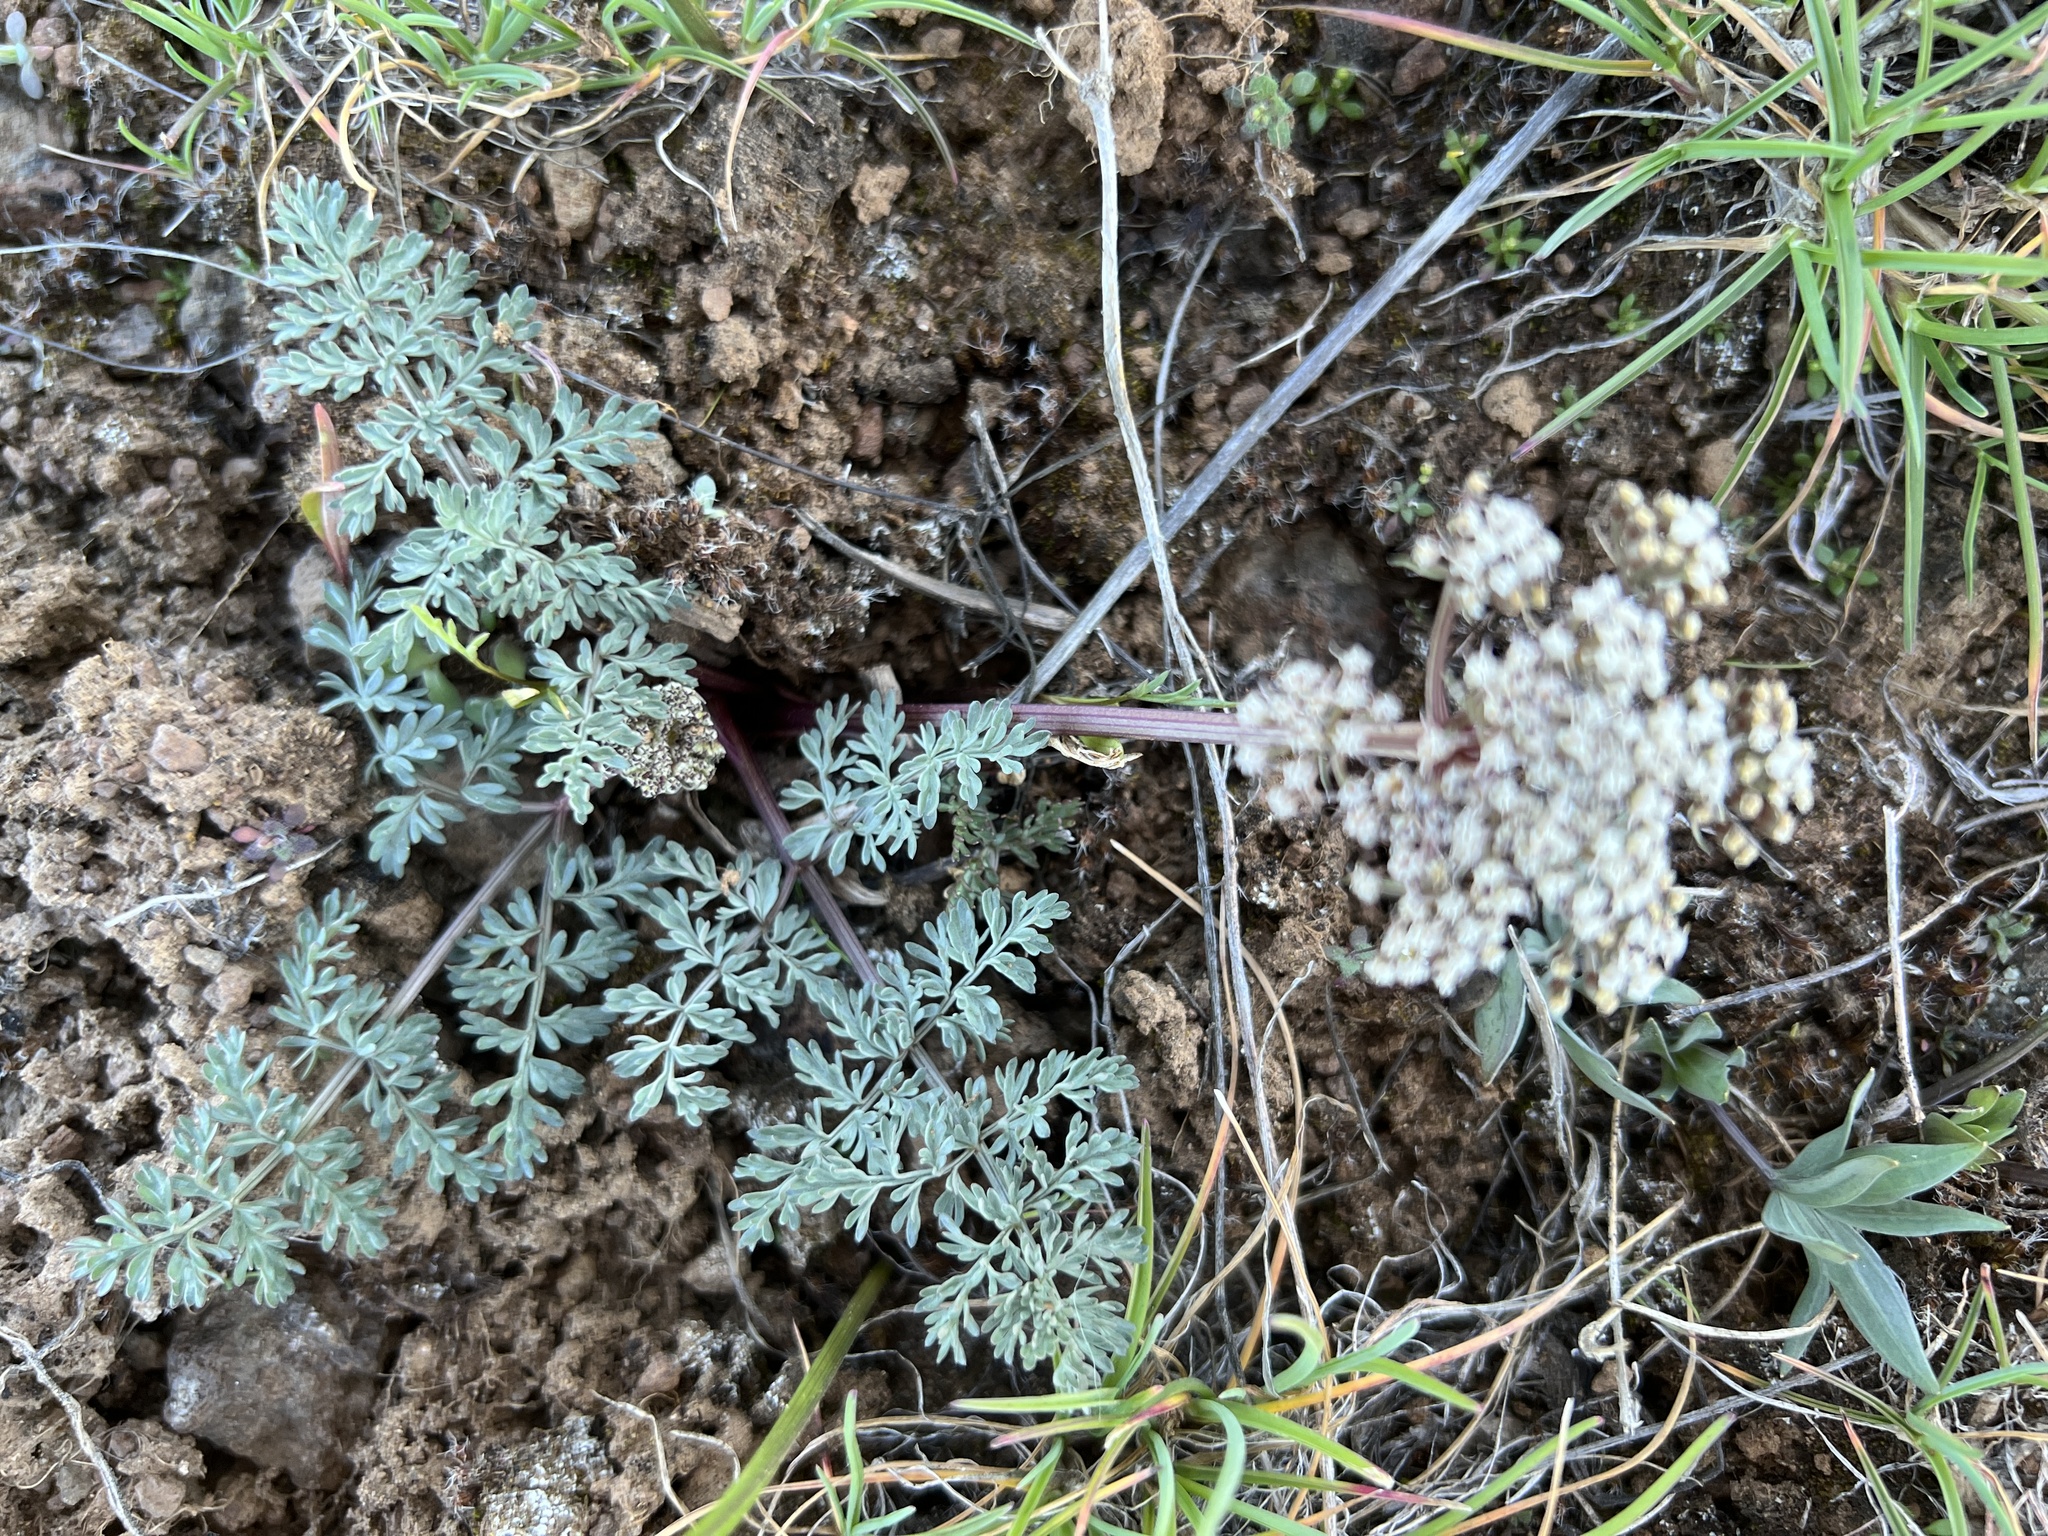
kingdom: Plantae
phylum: Tracheophyta
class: Magnoliopsida
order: Apiales
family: Apiaceae
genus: Lomatium
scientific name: Lomatium canbyi
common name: Chucklusa
